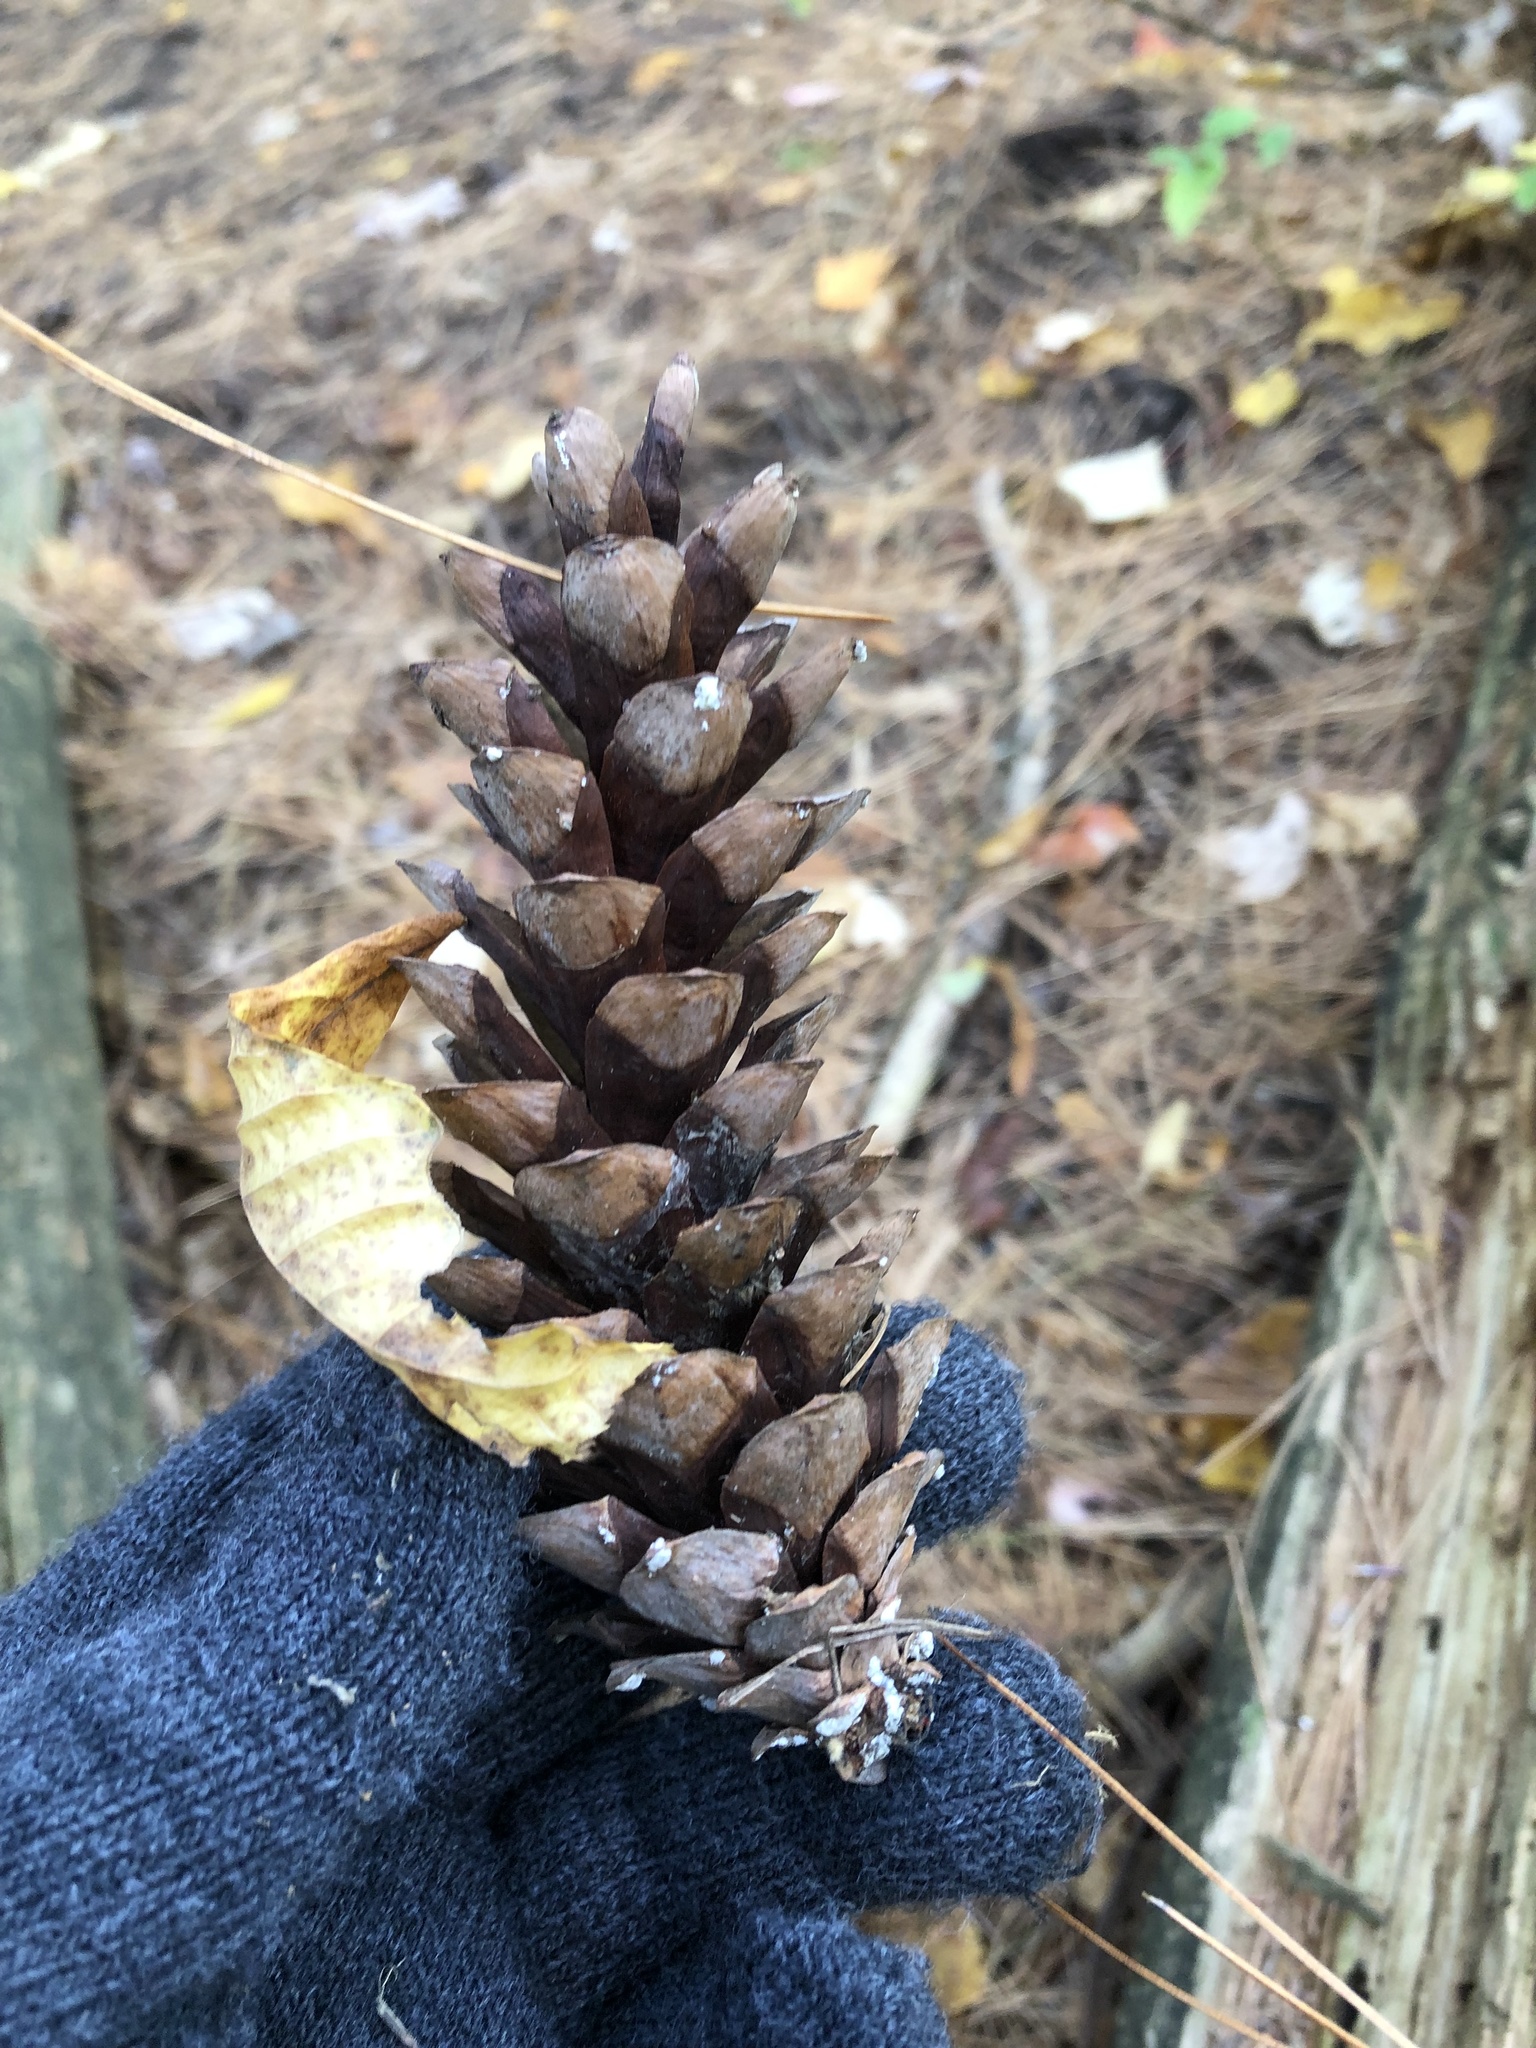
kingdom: Plantae
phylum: Tracheophyta
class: Pinopsida
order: Pinales
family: Pinaceae
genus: Pinus
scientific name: Pinus strobus
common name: Weymouth pine
